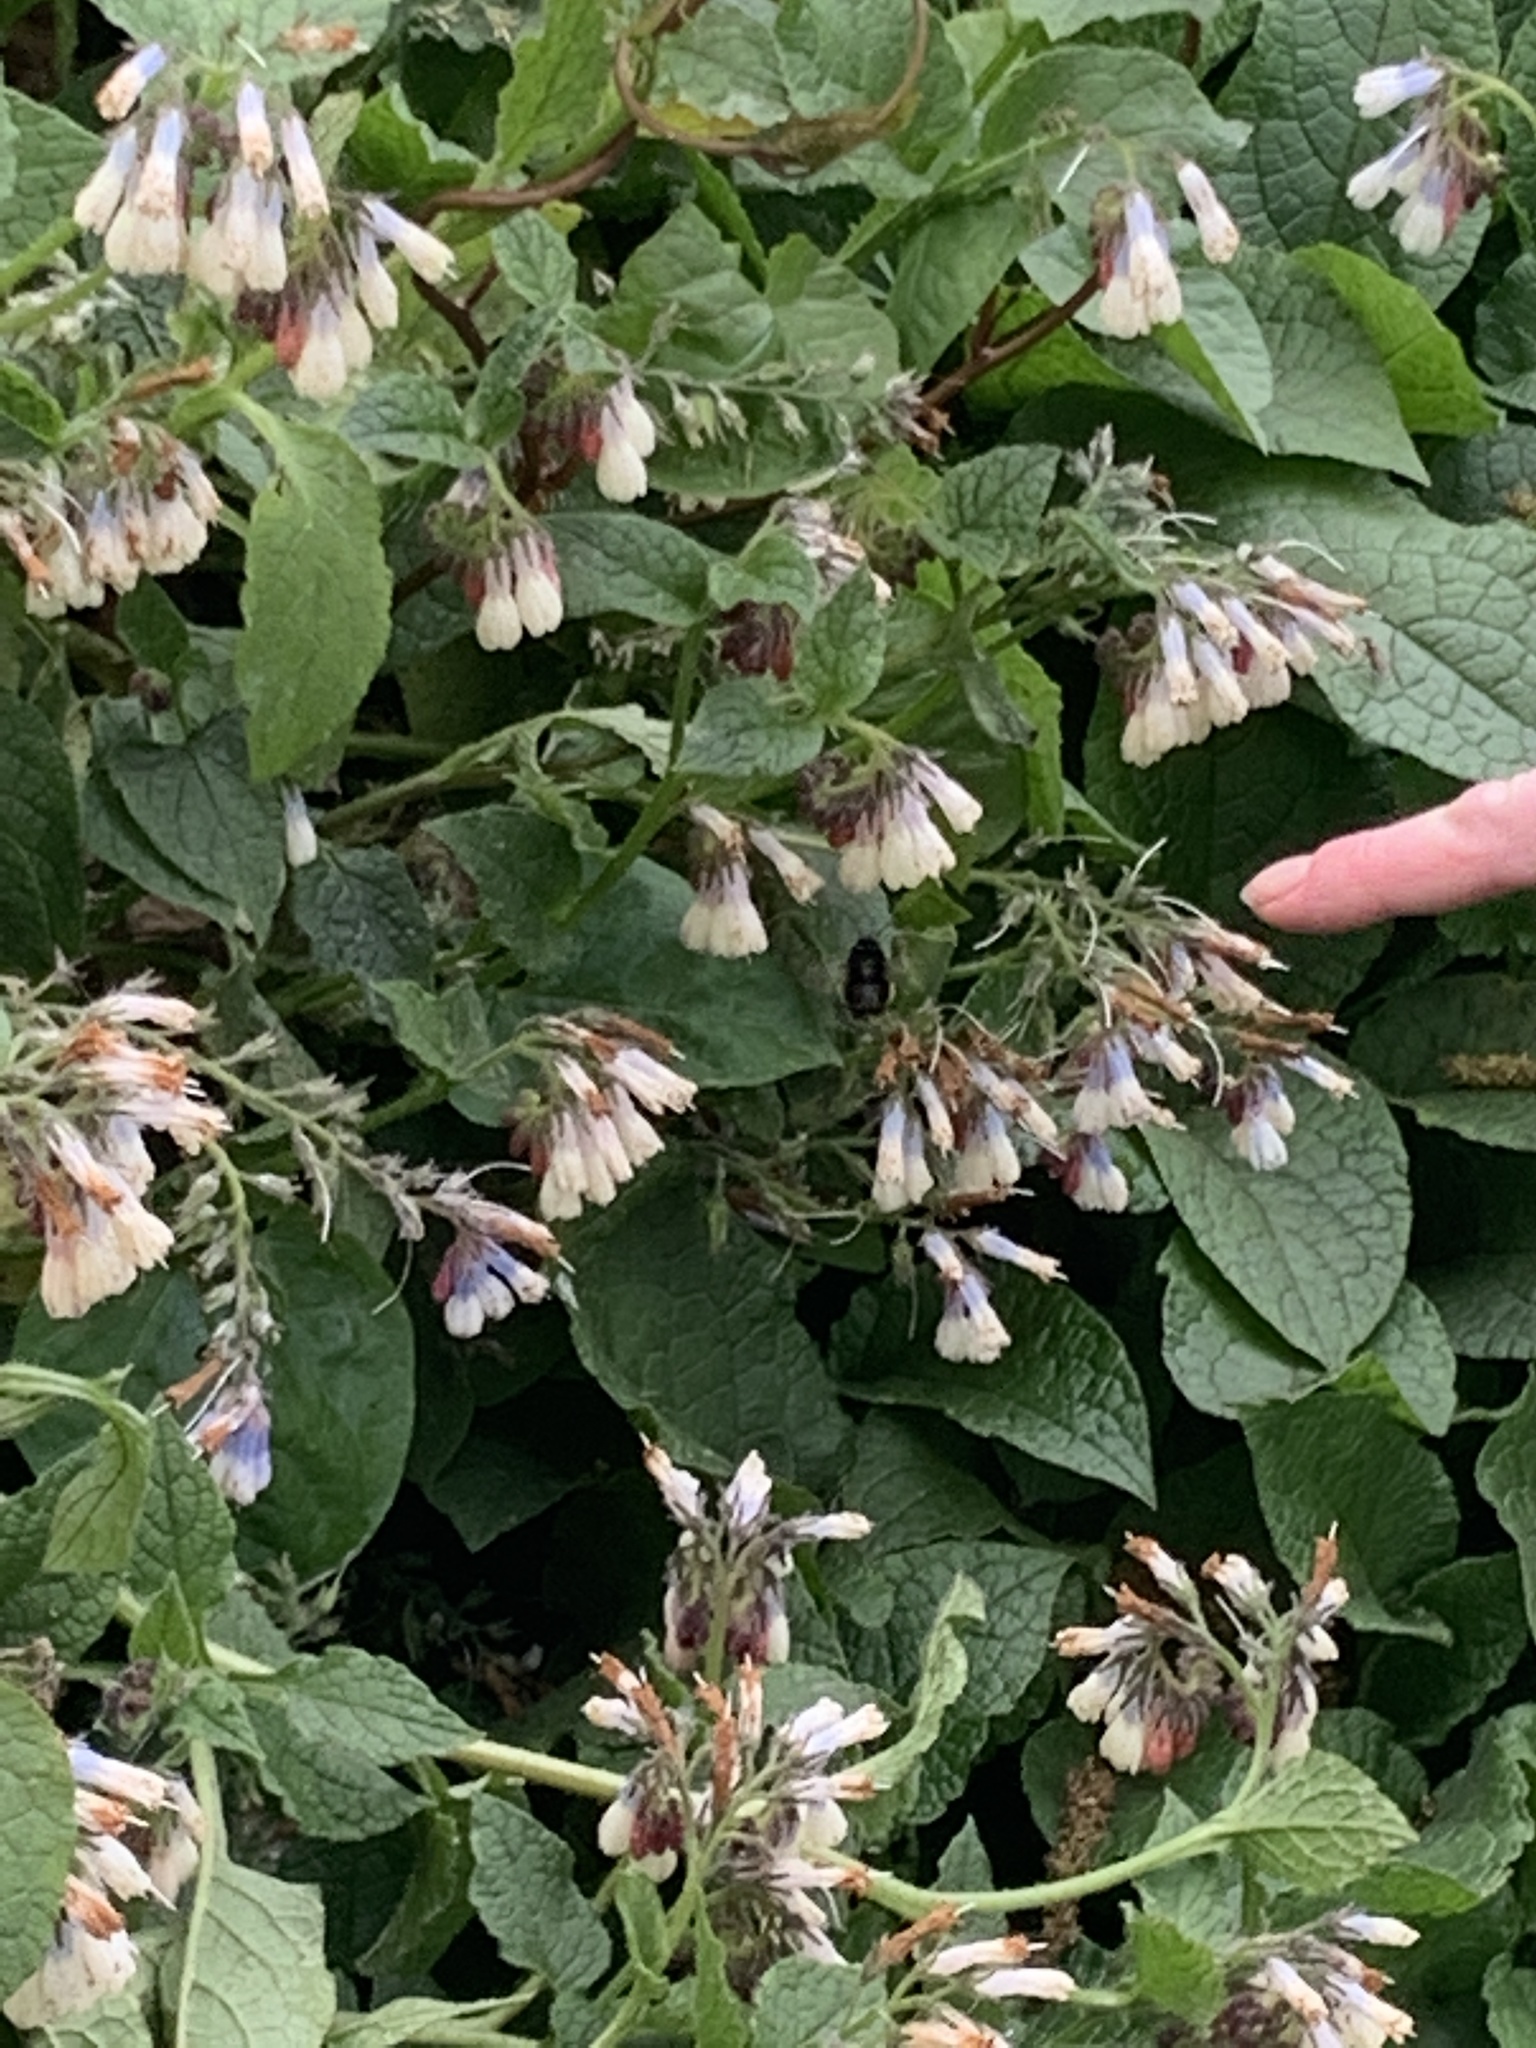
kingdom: Animalia
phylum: Arthropoda
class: Insecta
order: Hymenoptera
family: Apidae
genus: Anthophora
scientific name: Anthophora plumipes
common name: Hairy-footed flower bee
